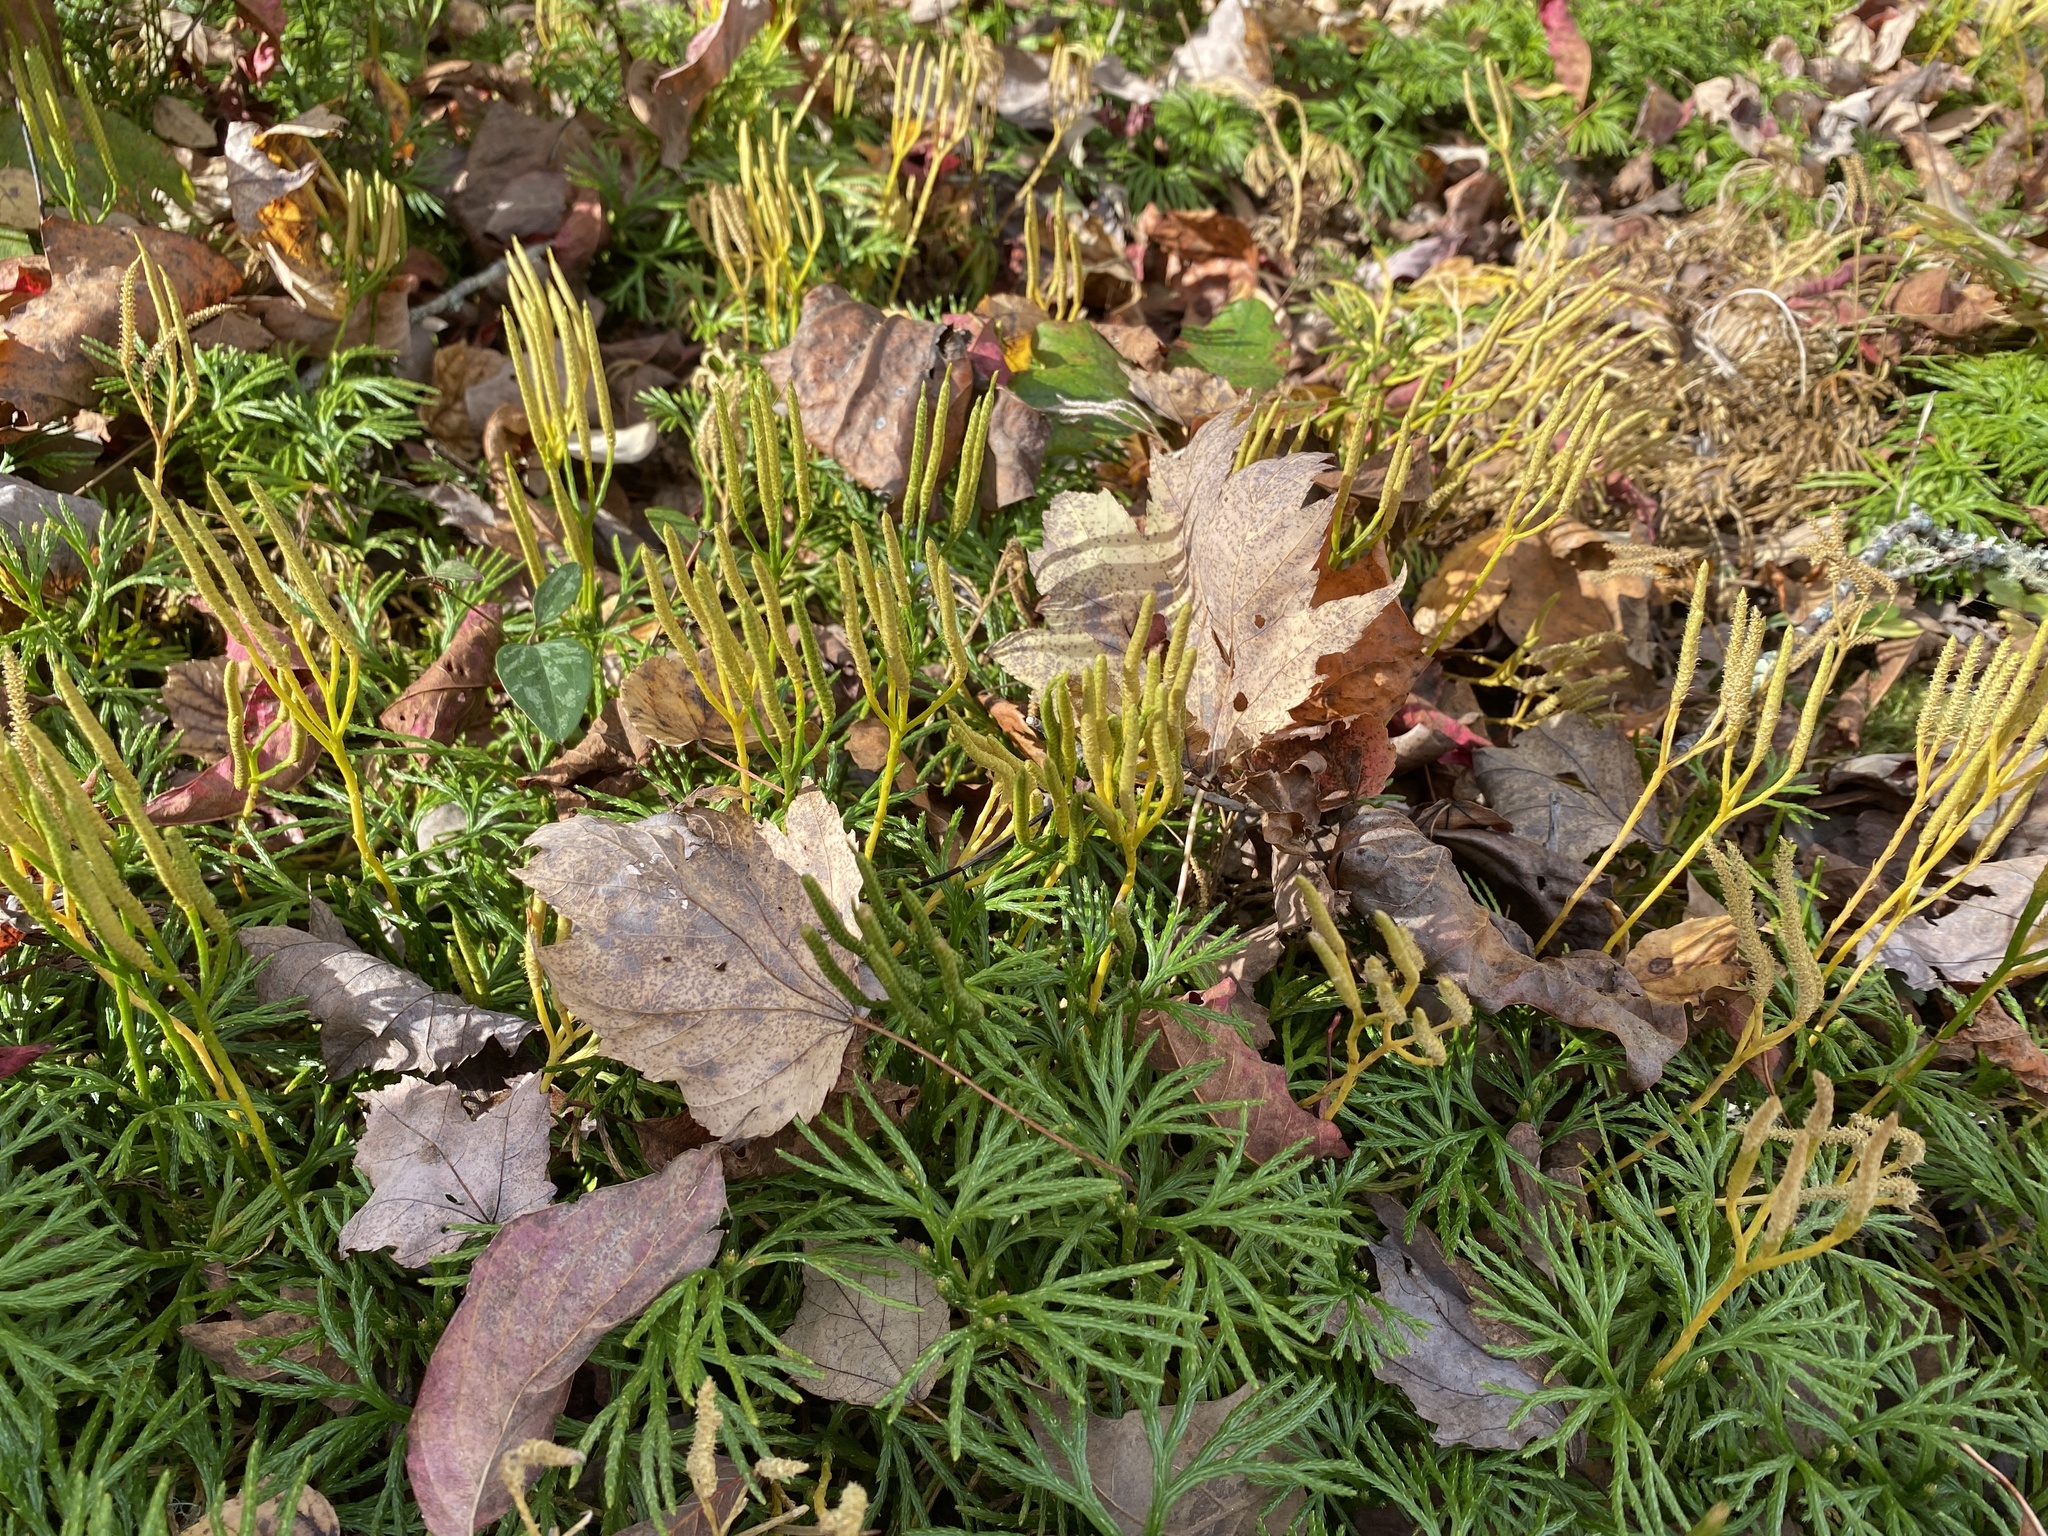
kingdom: Plantae
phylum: Tracheophyta
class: Lycopodiopsida
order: Lycopodiales
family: Lycopodiaceae
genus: Diphasiastrum
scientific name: Diphasiastrum digitatum
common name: Southern running-pine
